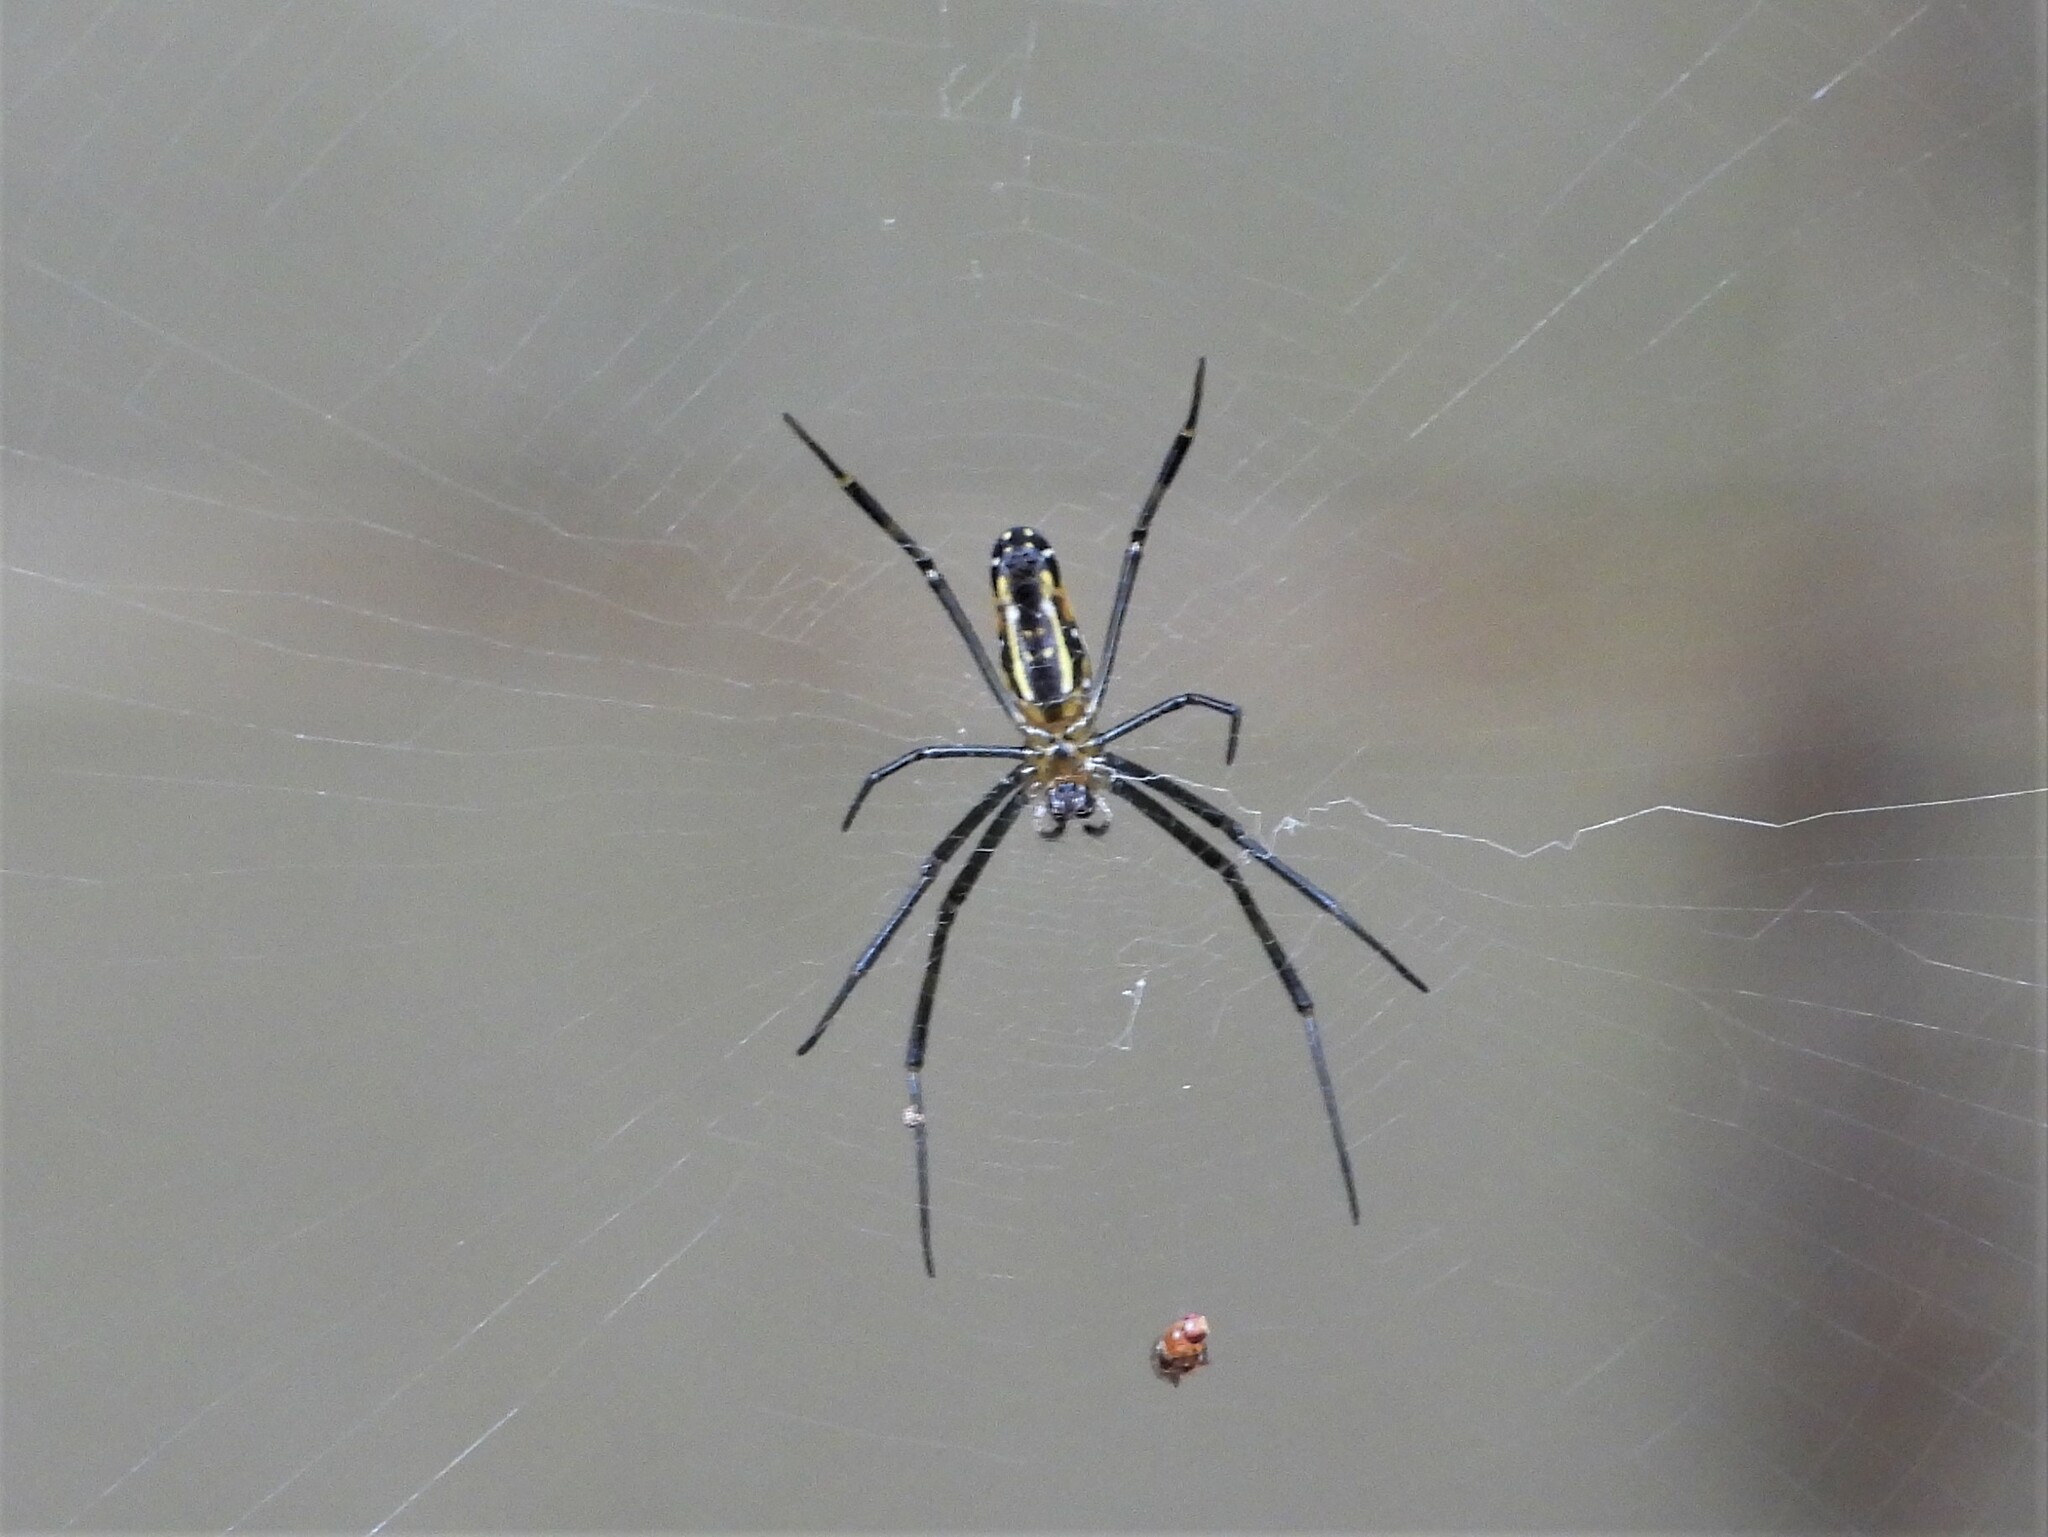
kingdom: Animalia
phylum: Arthropoda
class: Arachnida
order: Araneae
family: Araneidae
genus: Nephila
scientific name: Nephila pilipes
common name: Giant golden orb weaver
